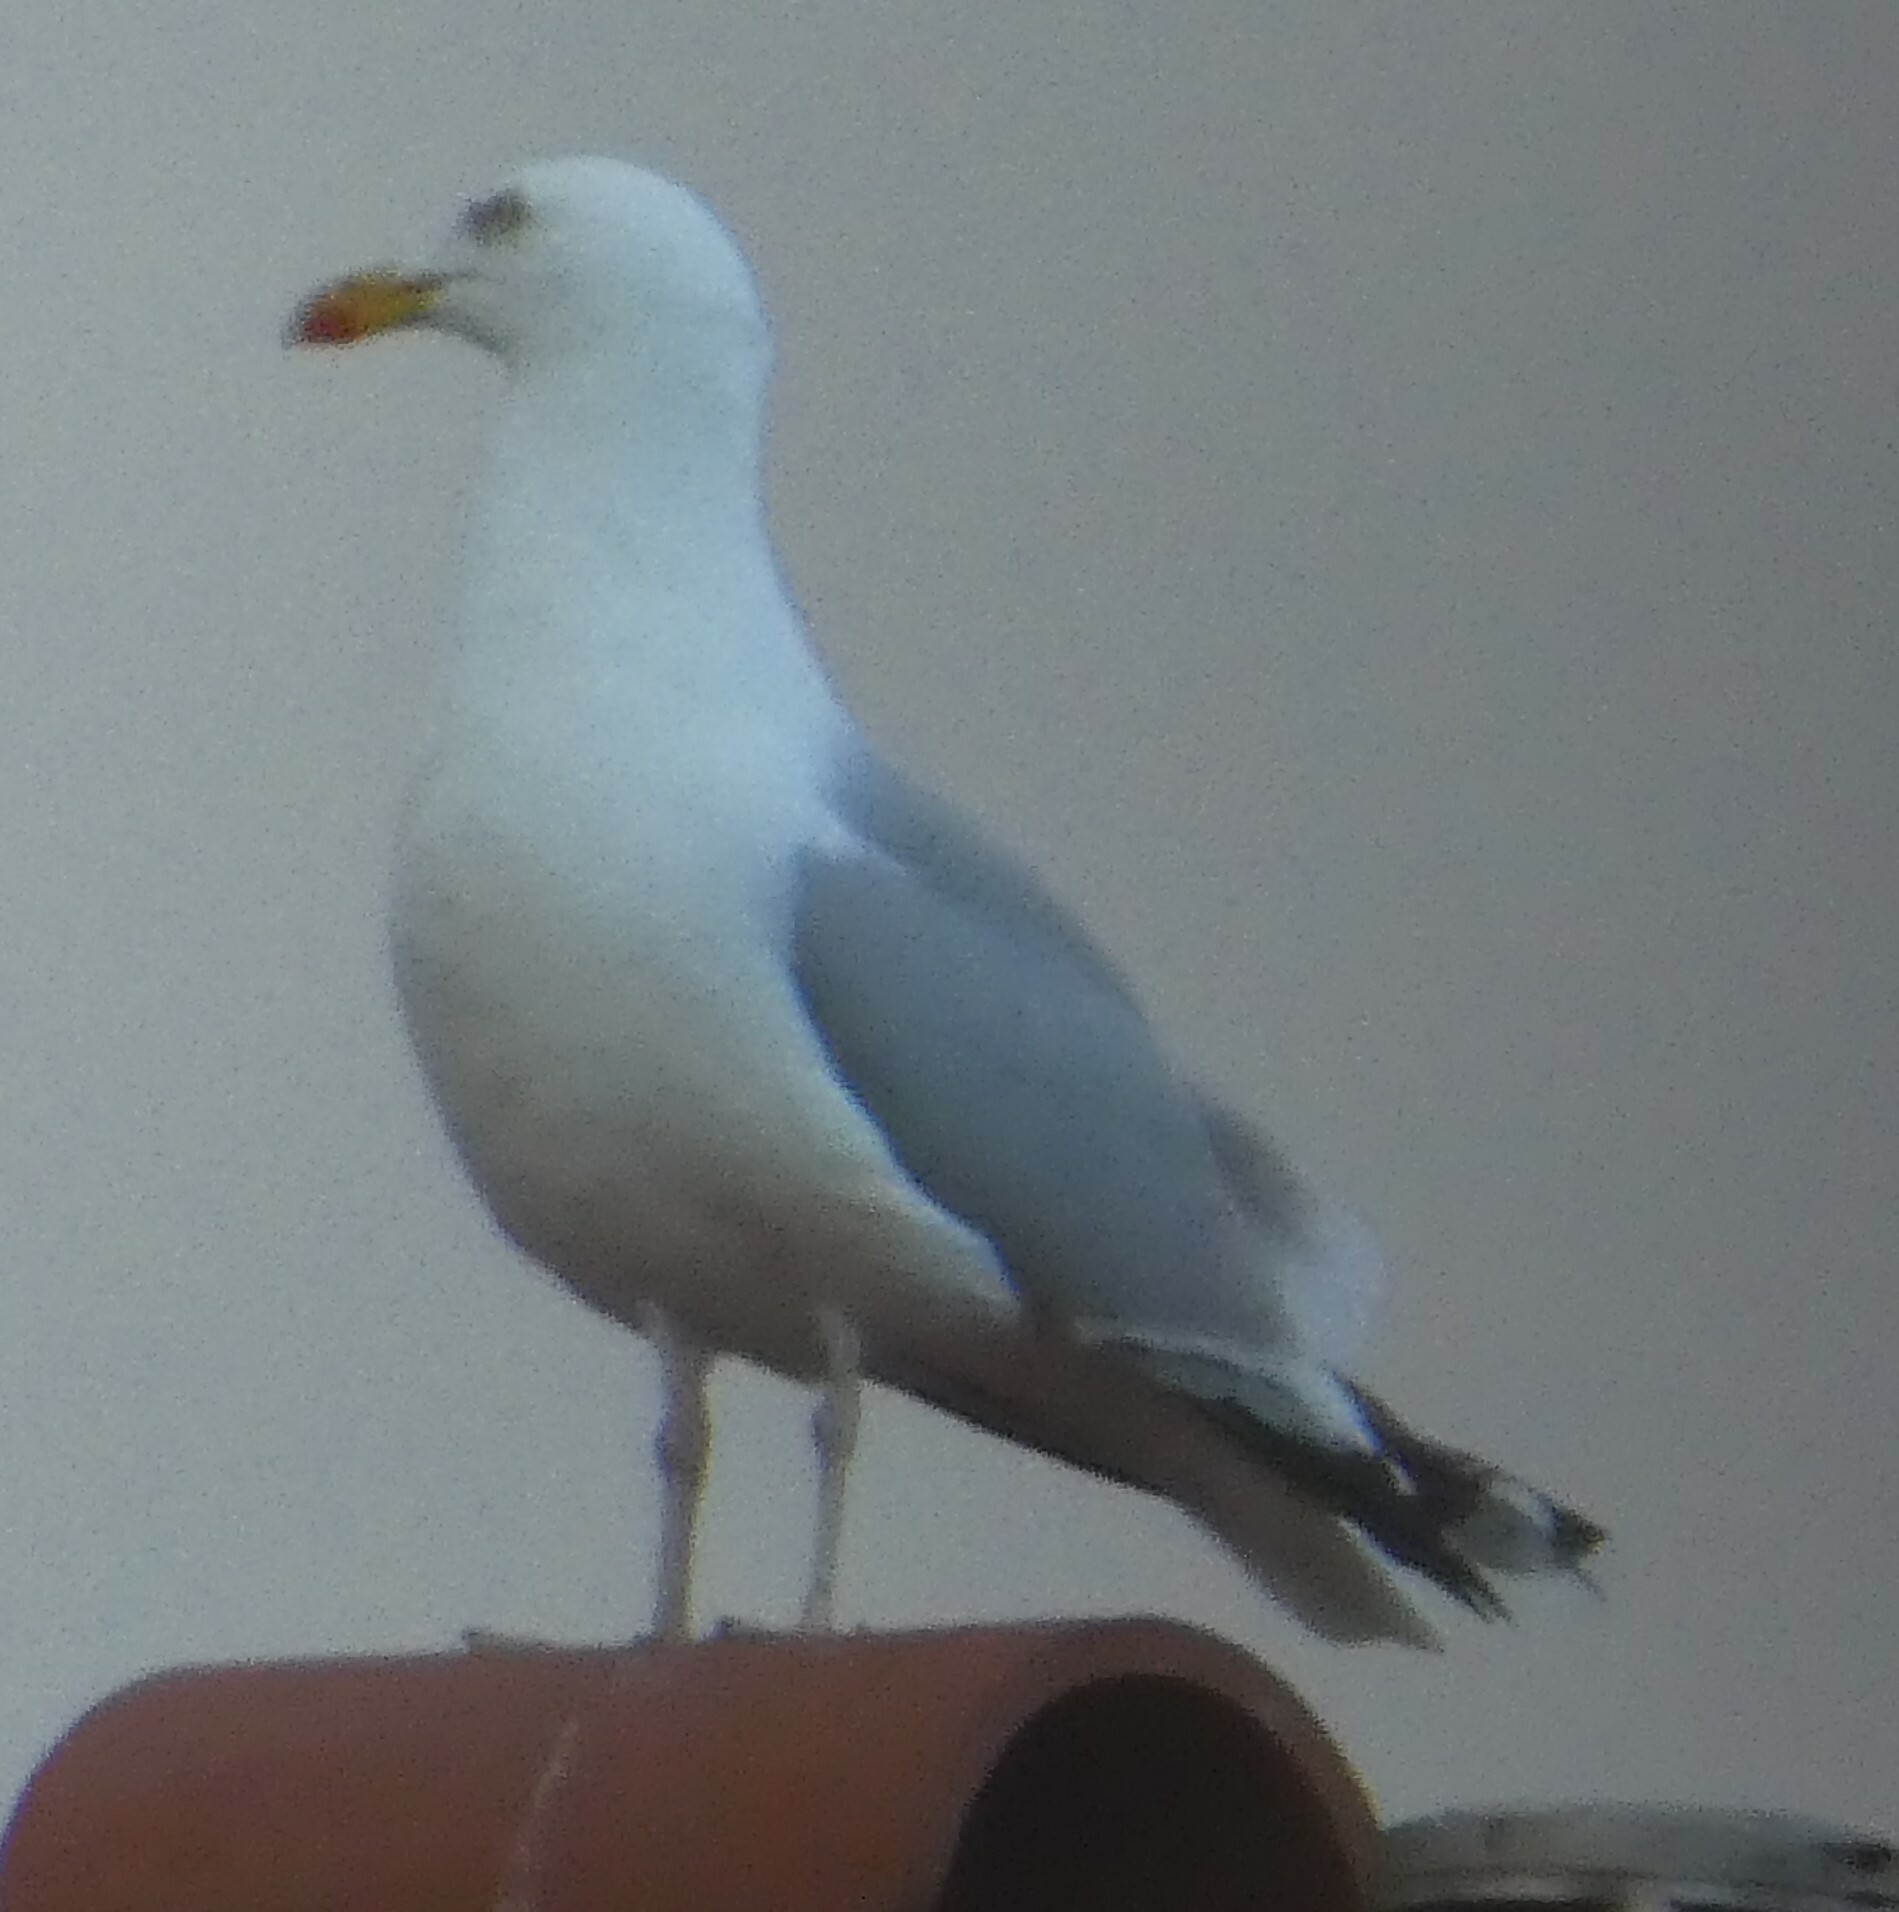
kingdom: Animalia
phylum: Chordata
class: Aves
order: Charadriiformes
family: Laridae
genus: Larus
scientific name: Larus argentatus
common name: Herring gull
